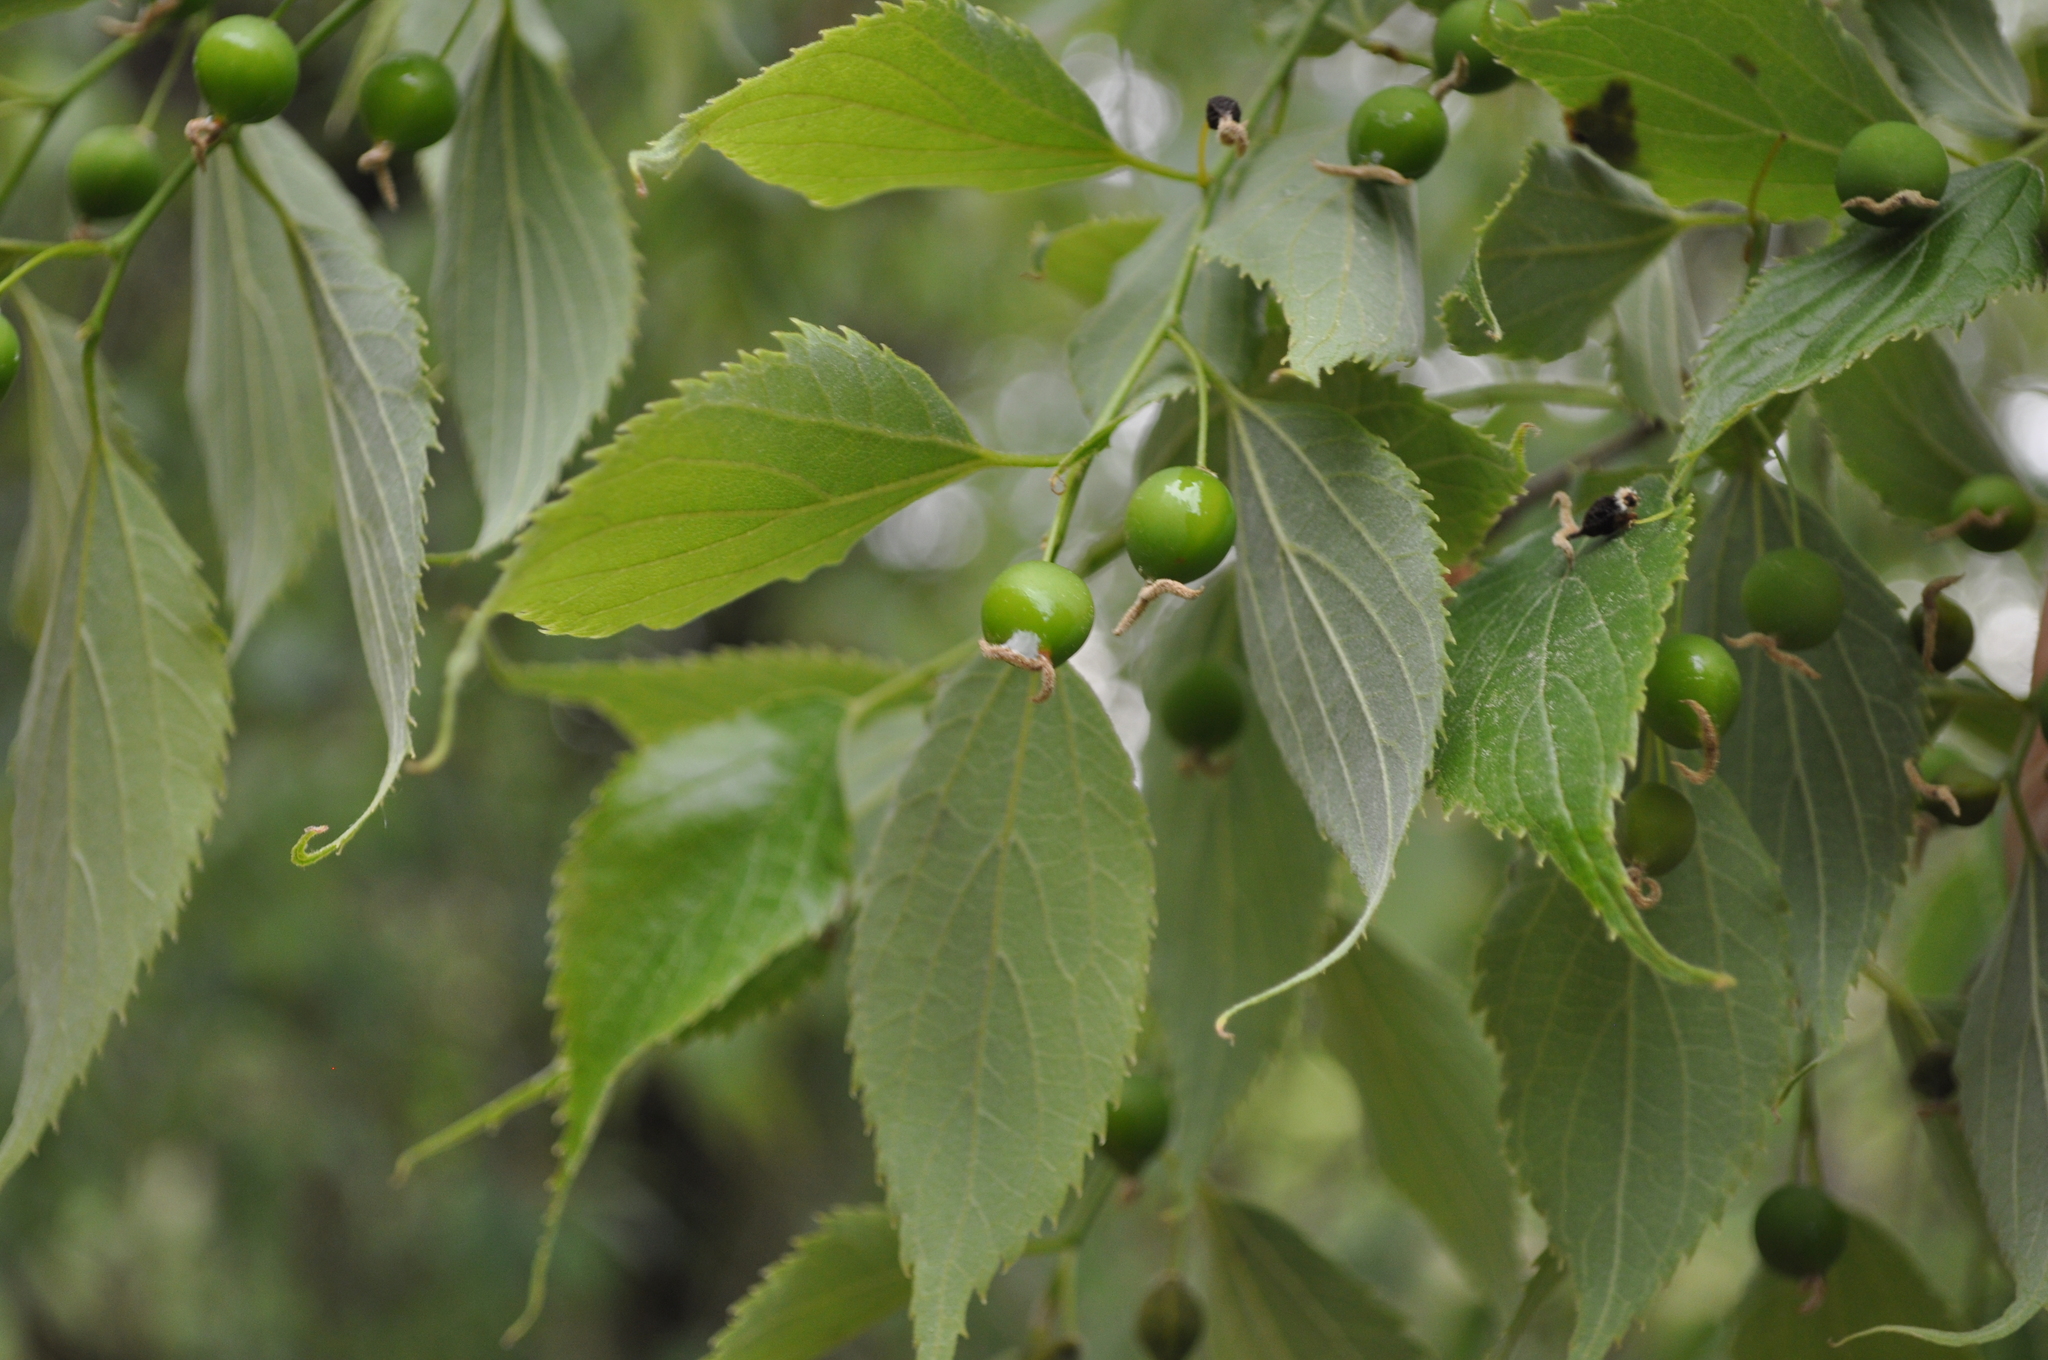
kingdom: Plantae
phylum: Tracheophyta
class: Magnoliopsida
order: Rosales
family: Cannabaceae
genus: Celtis
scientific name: Celtis australis
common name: European hackberry
